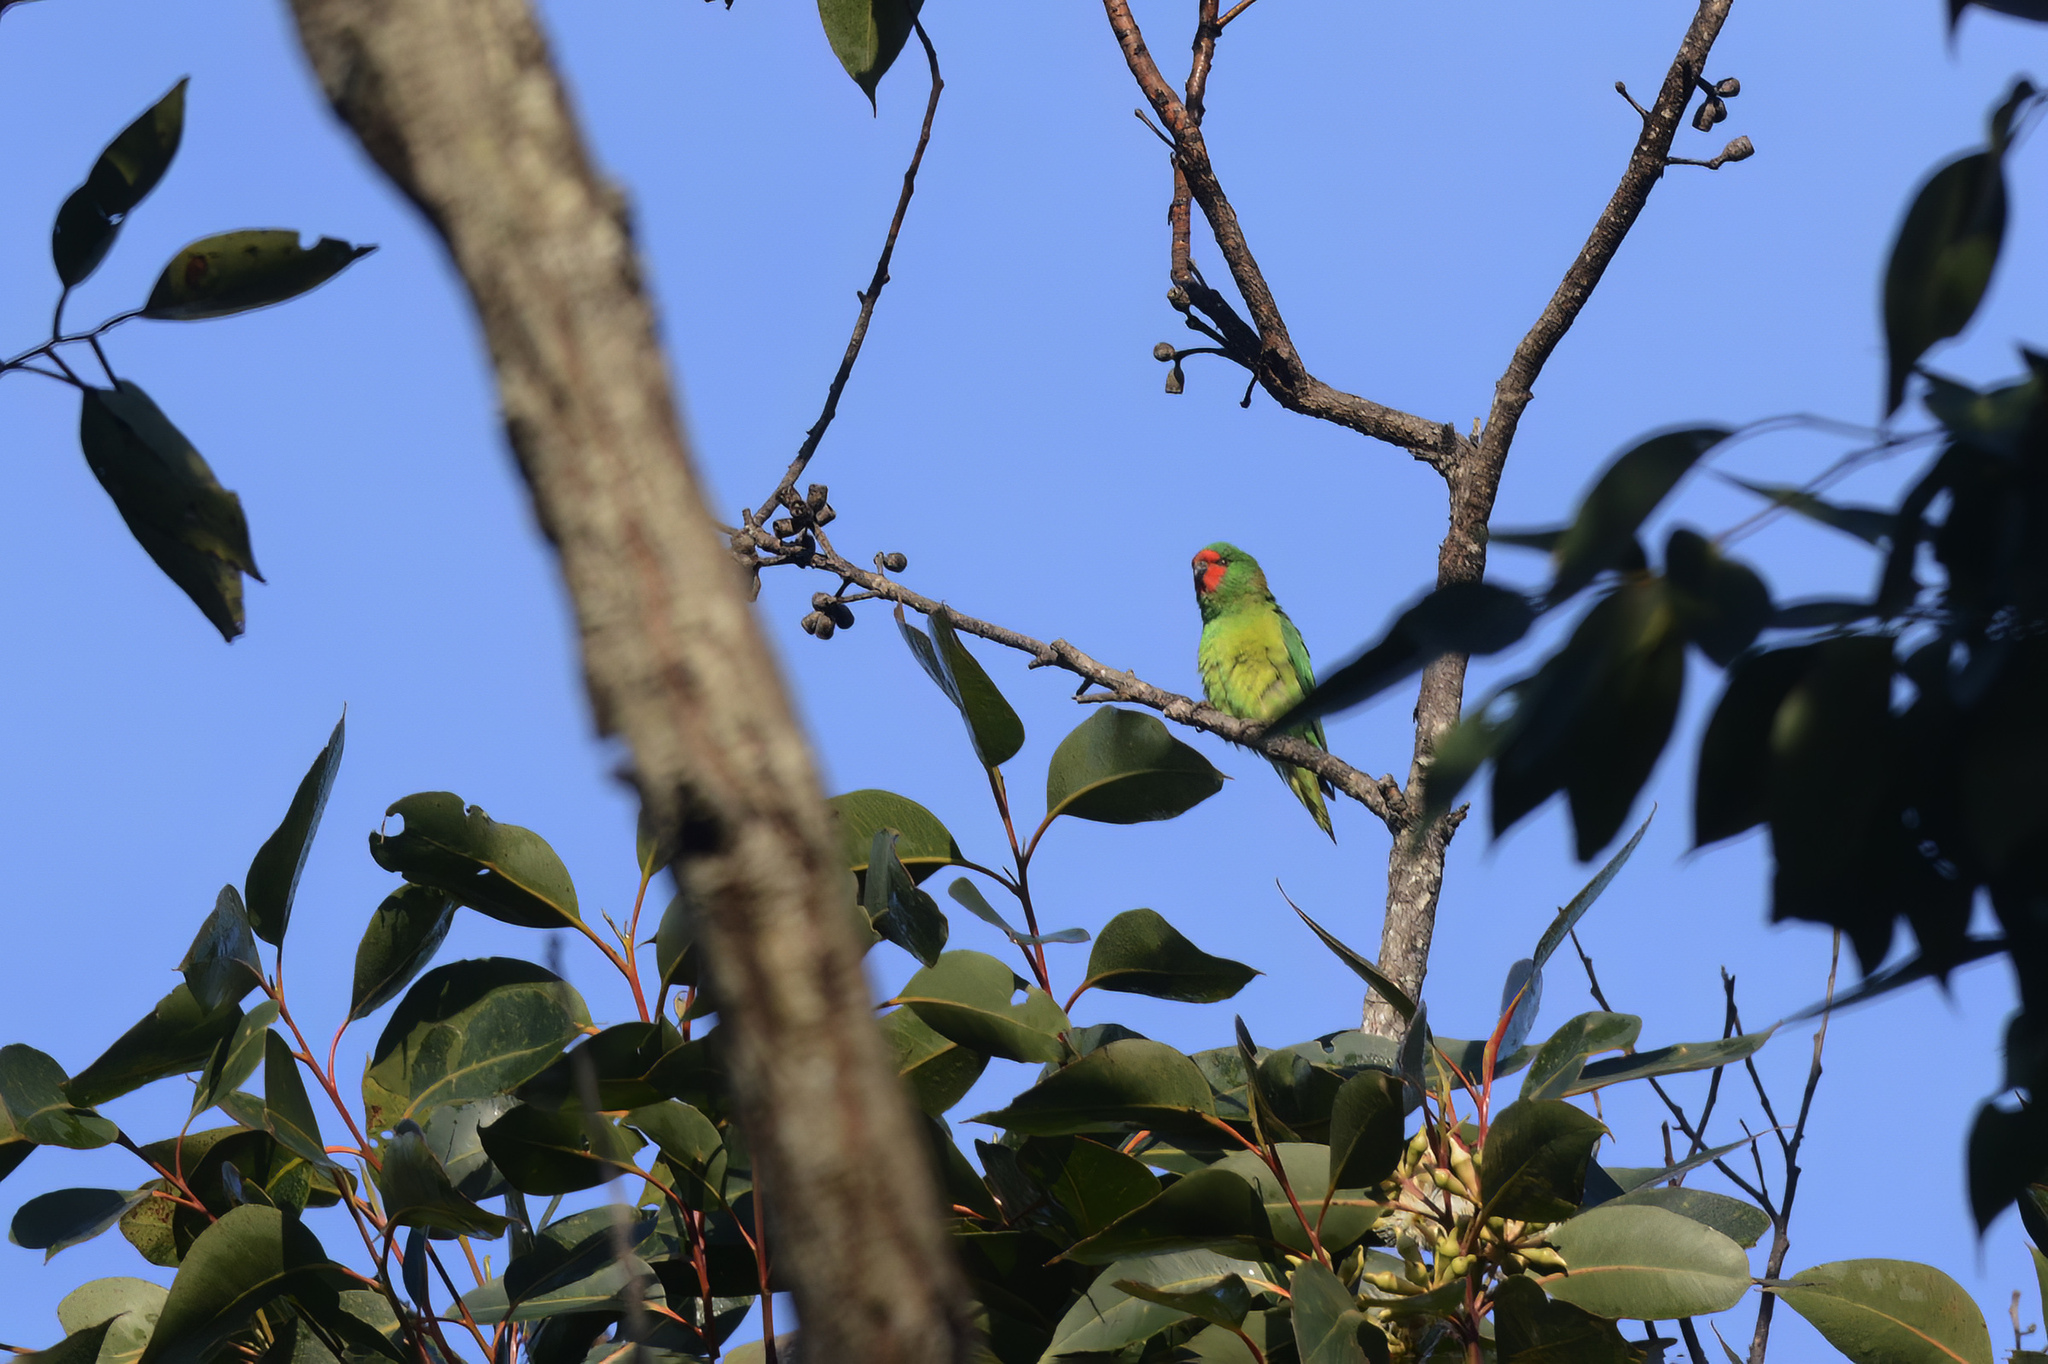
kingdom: Animalia
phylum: Chordata
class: Aves
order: Psittaciformes
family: Psittaculidae
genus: Parvipsitta
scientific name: Parvipsitta pusilla
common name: Little lorikeet
